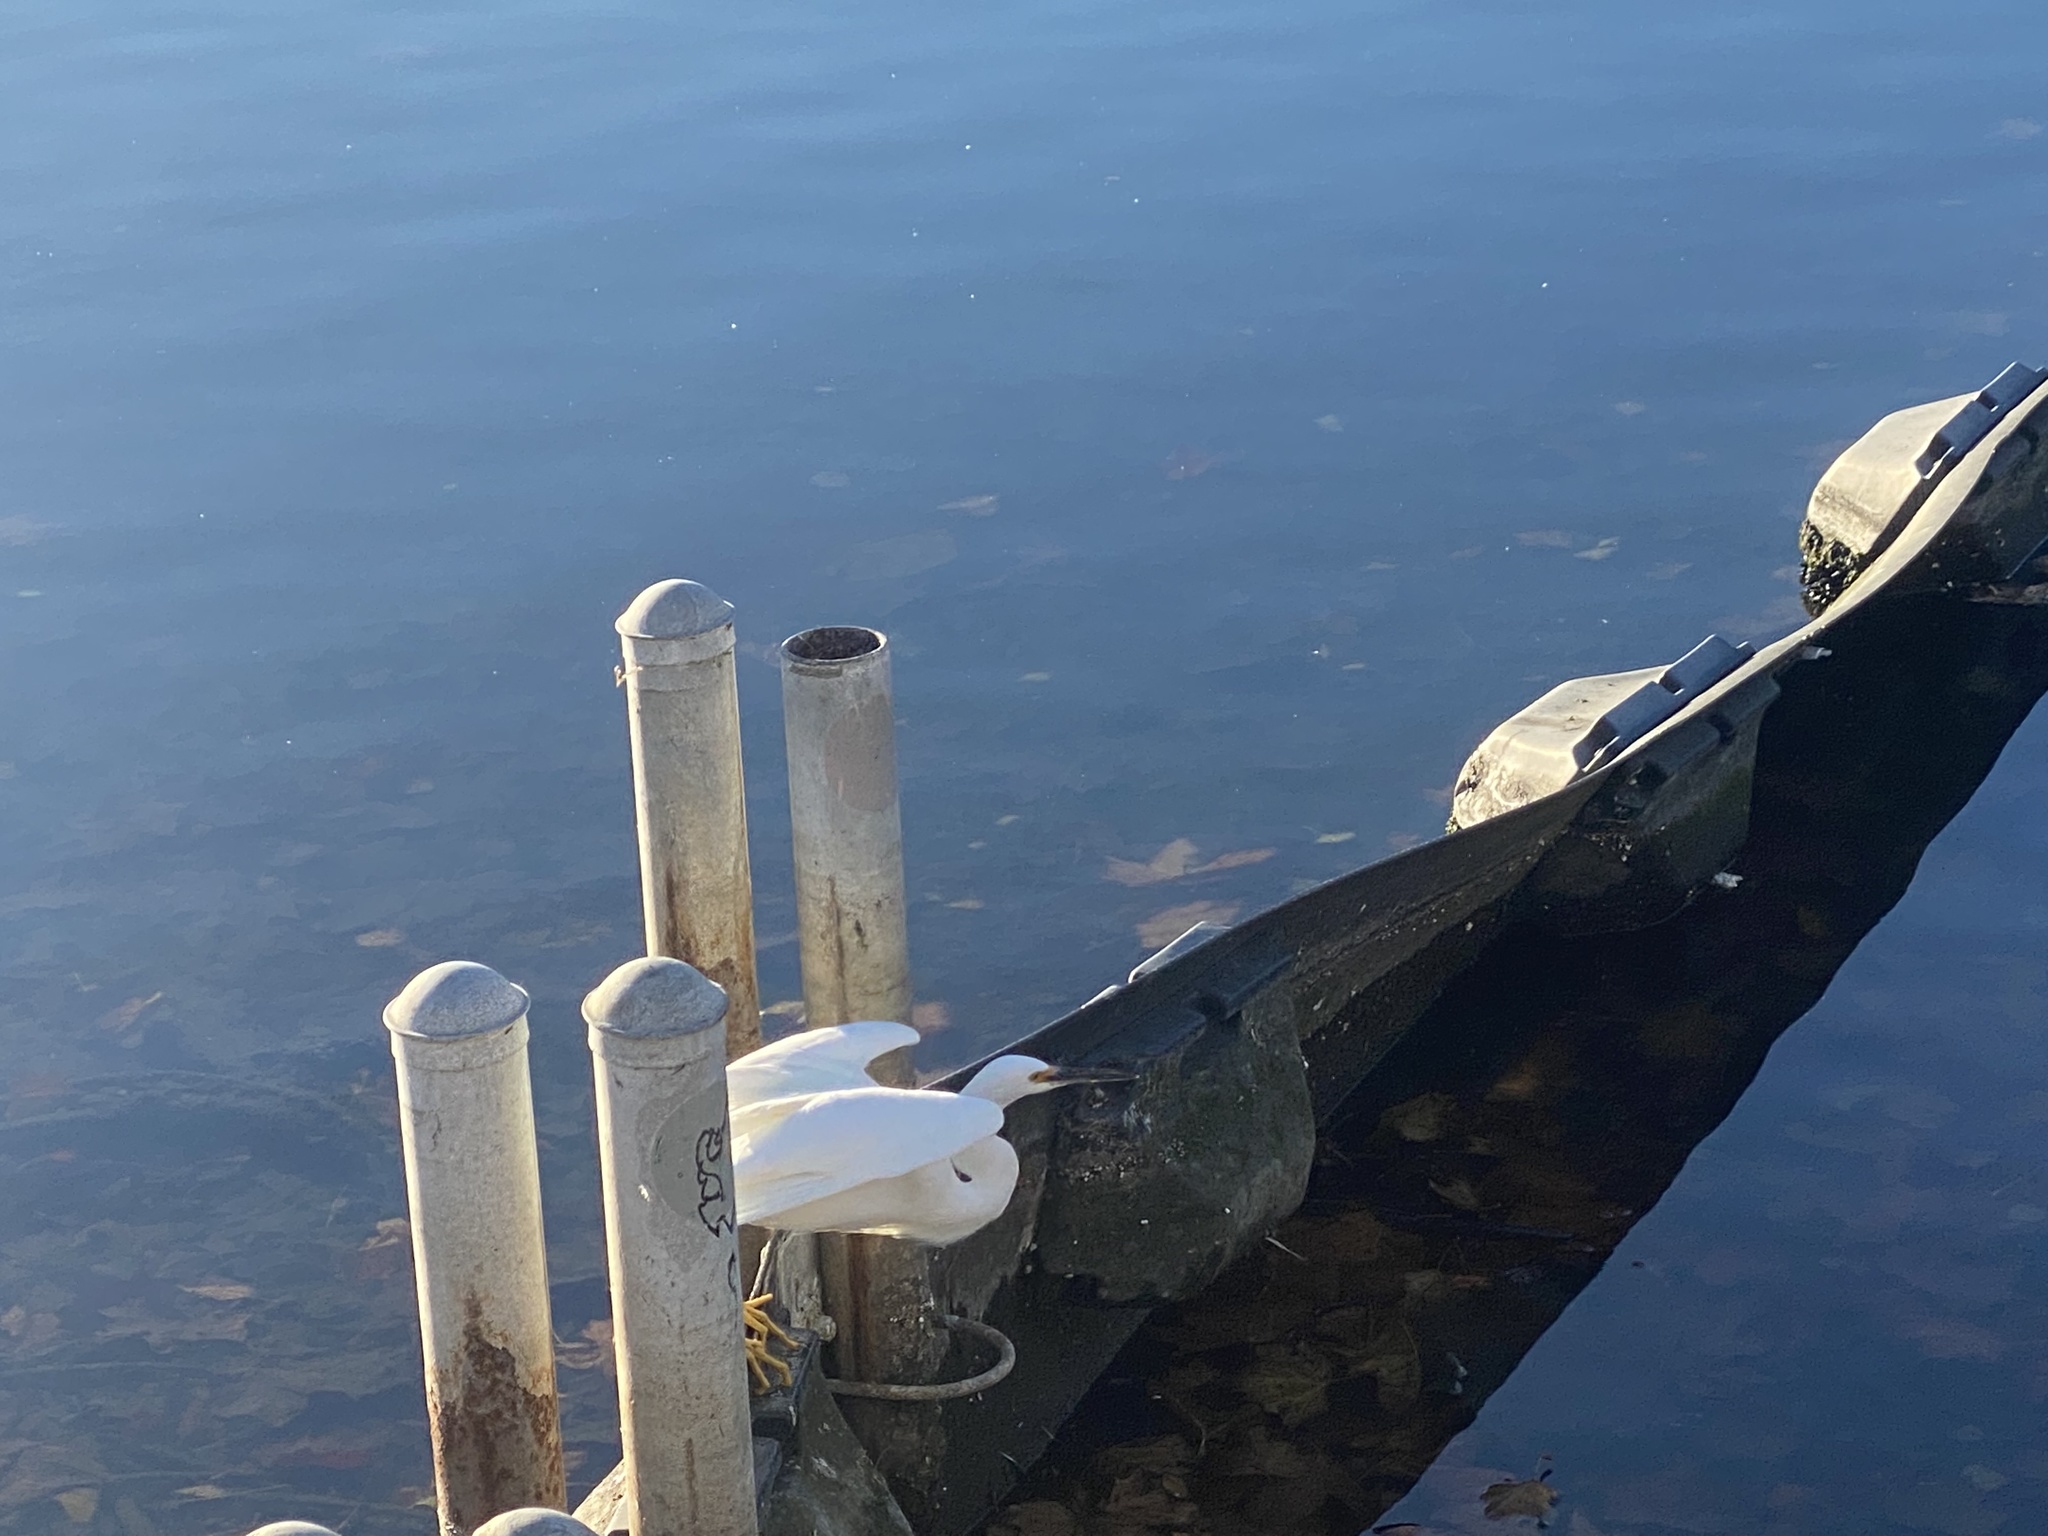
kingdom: Animalia
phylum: Chordata
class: Aves
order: Pelecaniformes
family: Ardeidae
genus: Egretta
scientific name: Egretta thula
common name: Snowy egret
